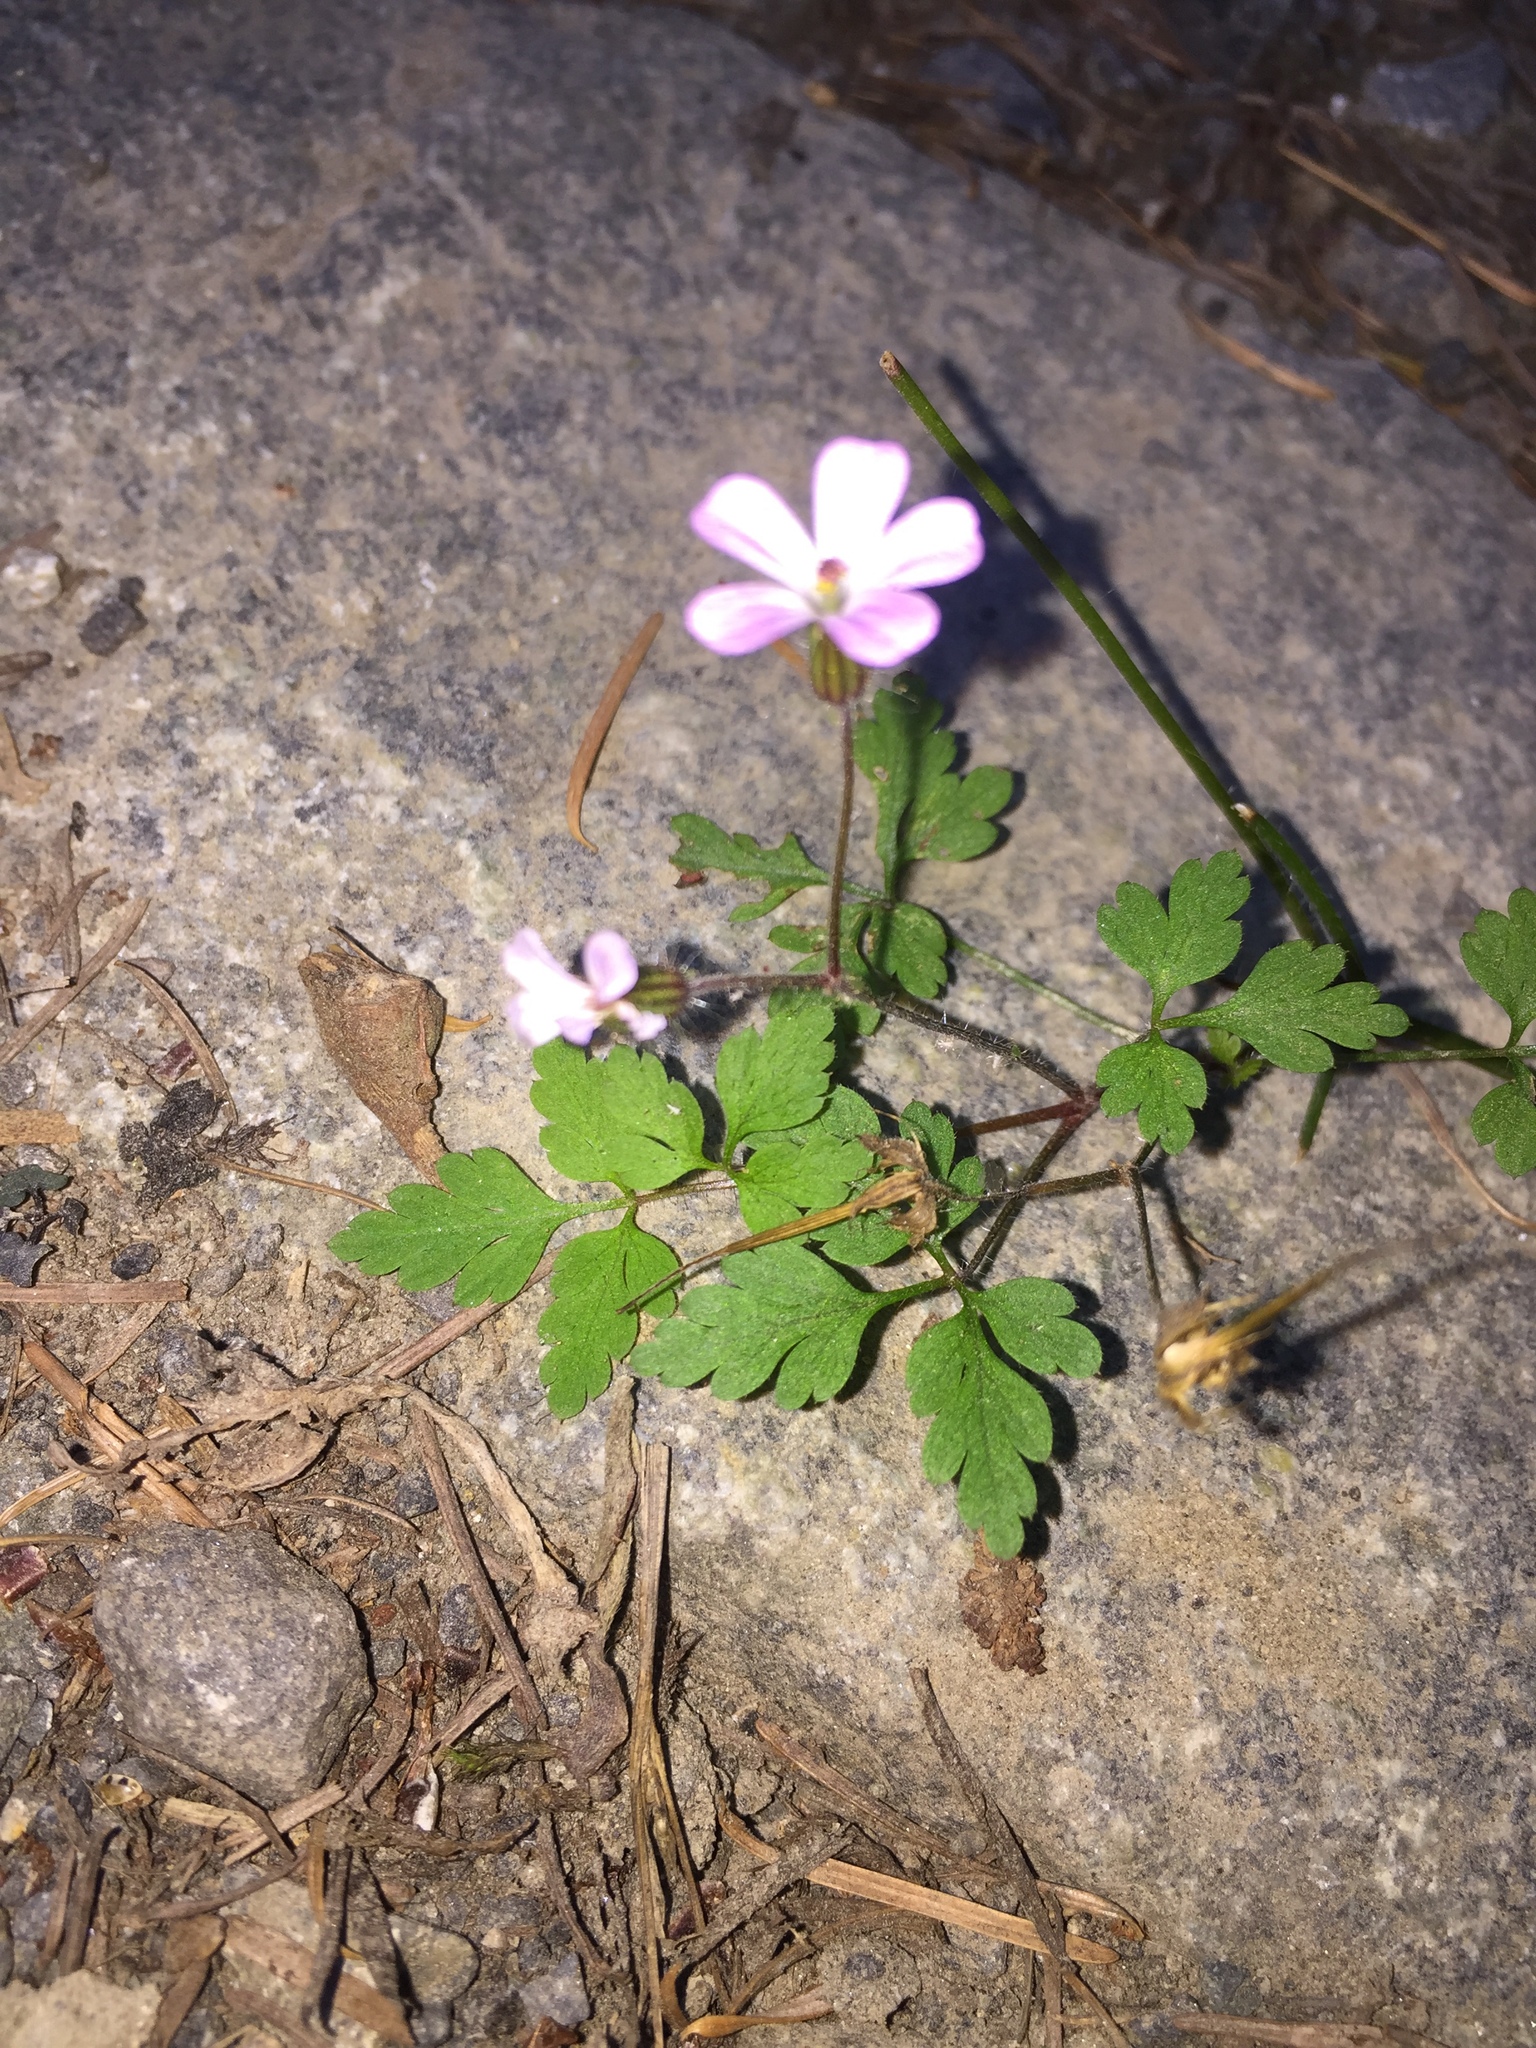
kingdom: Plantae
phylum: Tracheophyta
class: Magnoliopsida
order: Geraniales
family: Geraniaceae
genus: Geranium
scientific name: Geranium robertianum
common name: Herb-robert
